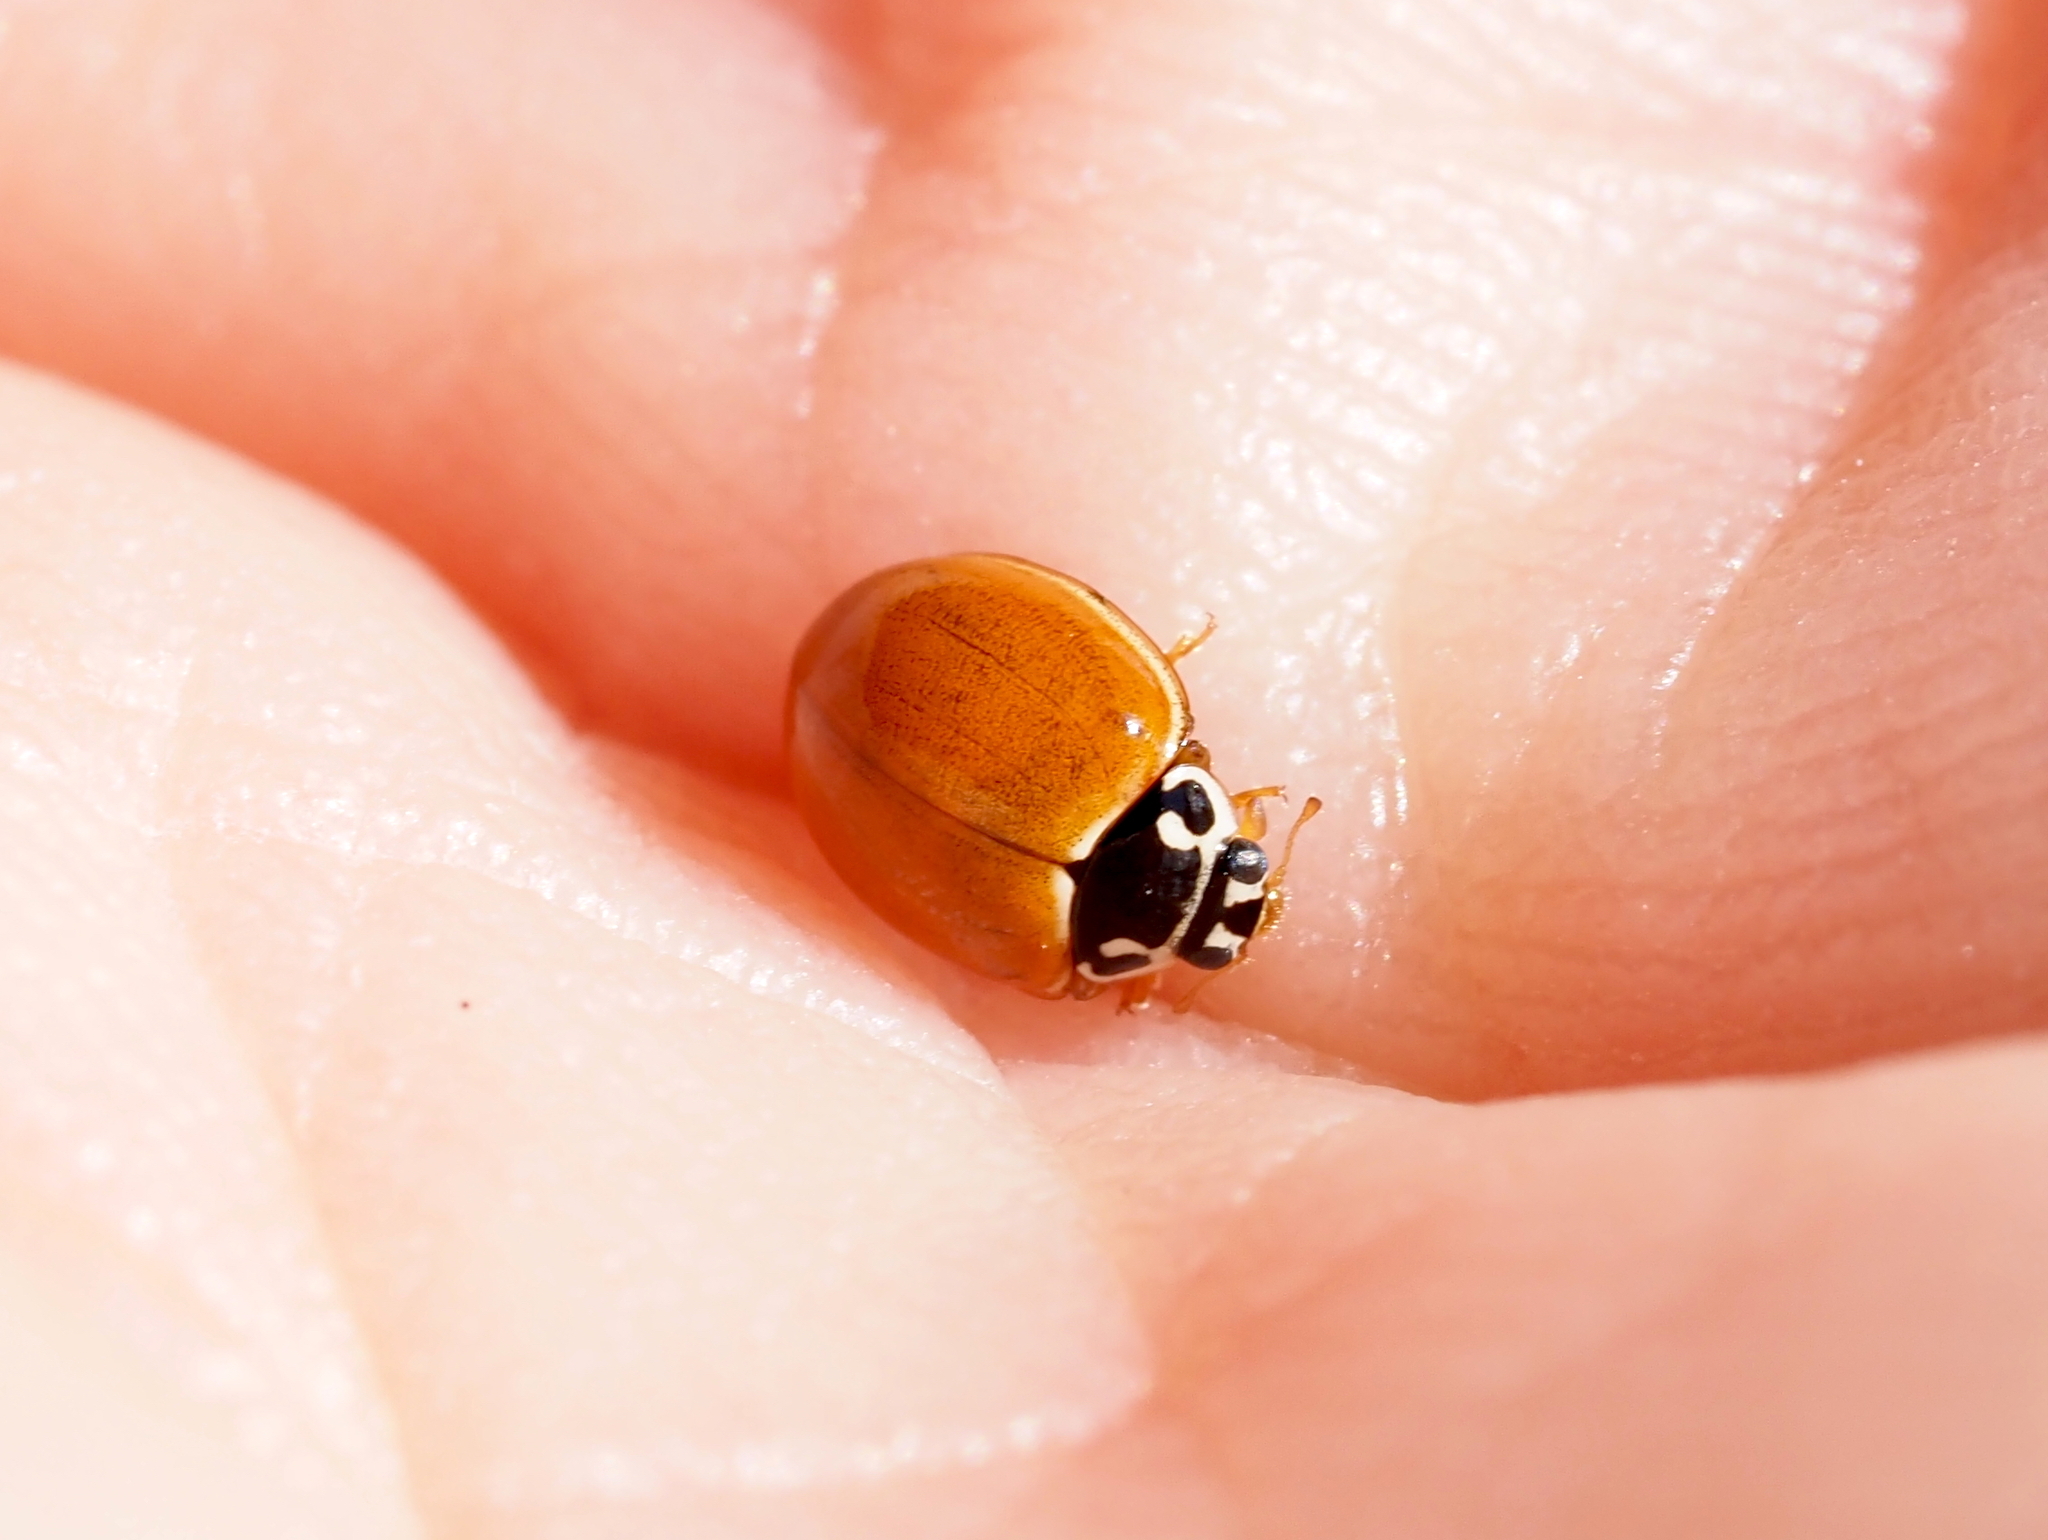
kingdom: Animalia
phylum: Arthropoda
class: Insecta
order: Coleoptera
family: Coccinellidae
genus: Cycloneda
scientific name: Cycloneda munda
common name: Polished lady beetle
